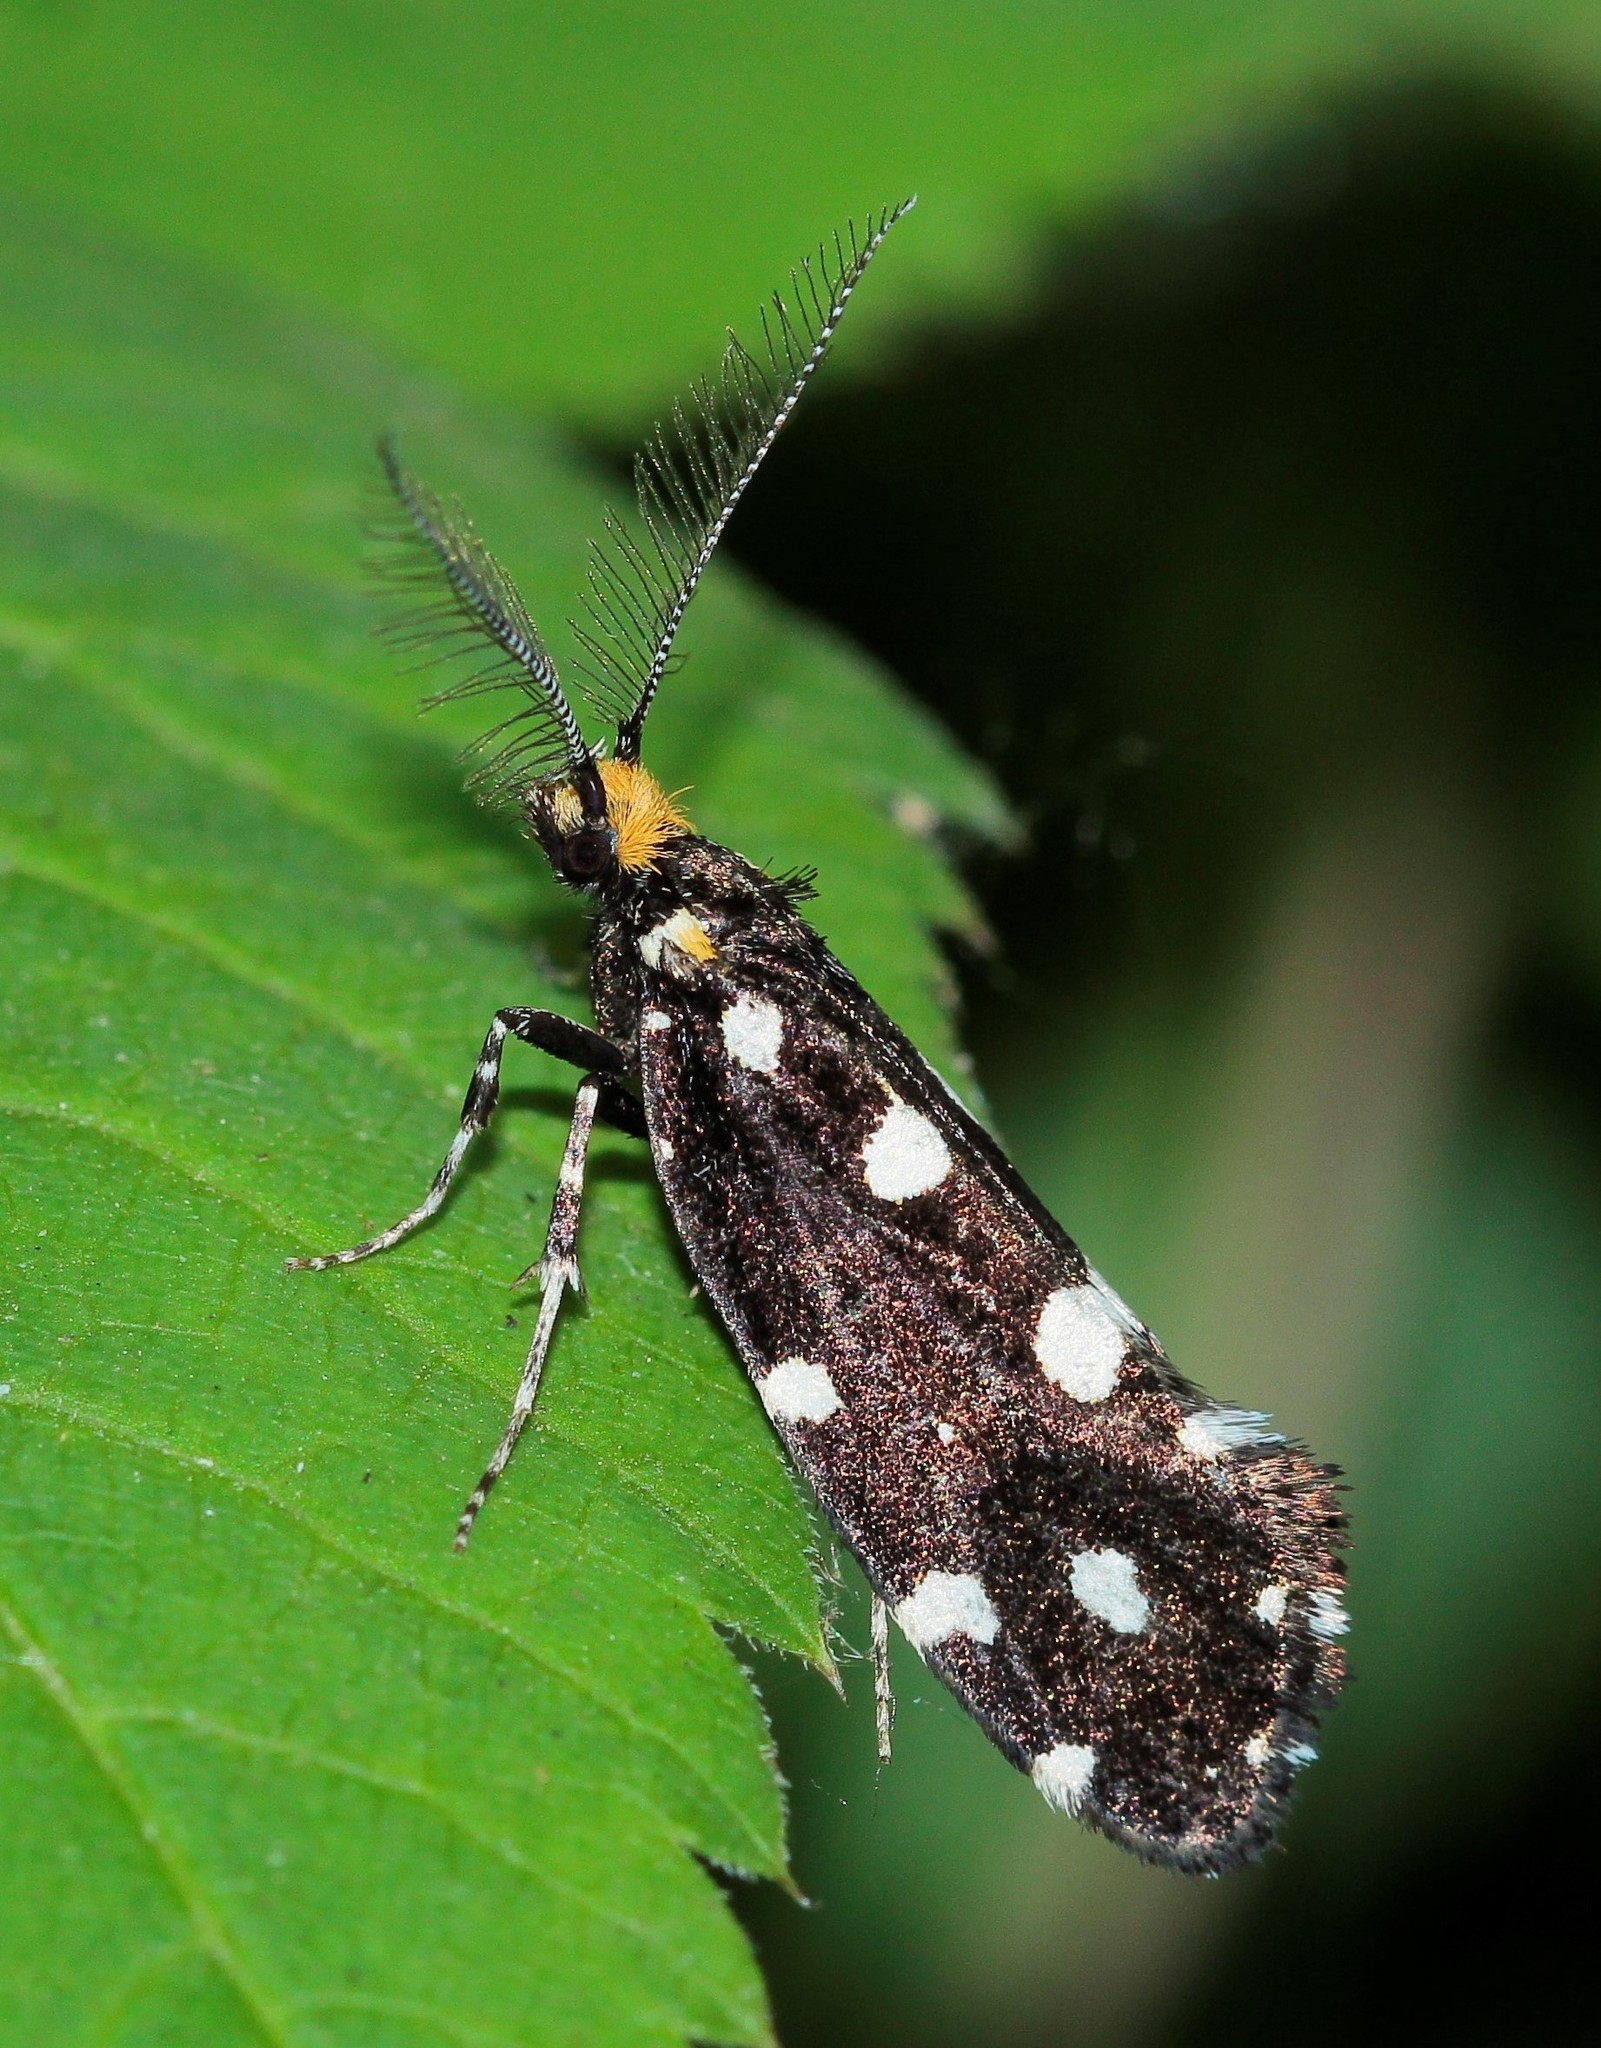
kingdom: Animalia
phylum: Arthropoda
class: Insecta
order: Lepidoptera
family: Tineidae
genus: Euplocamus
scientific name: Euplocamus anthracinalis
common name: Black clothes
